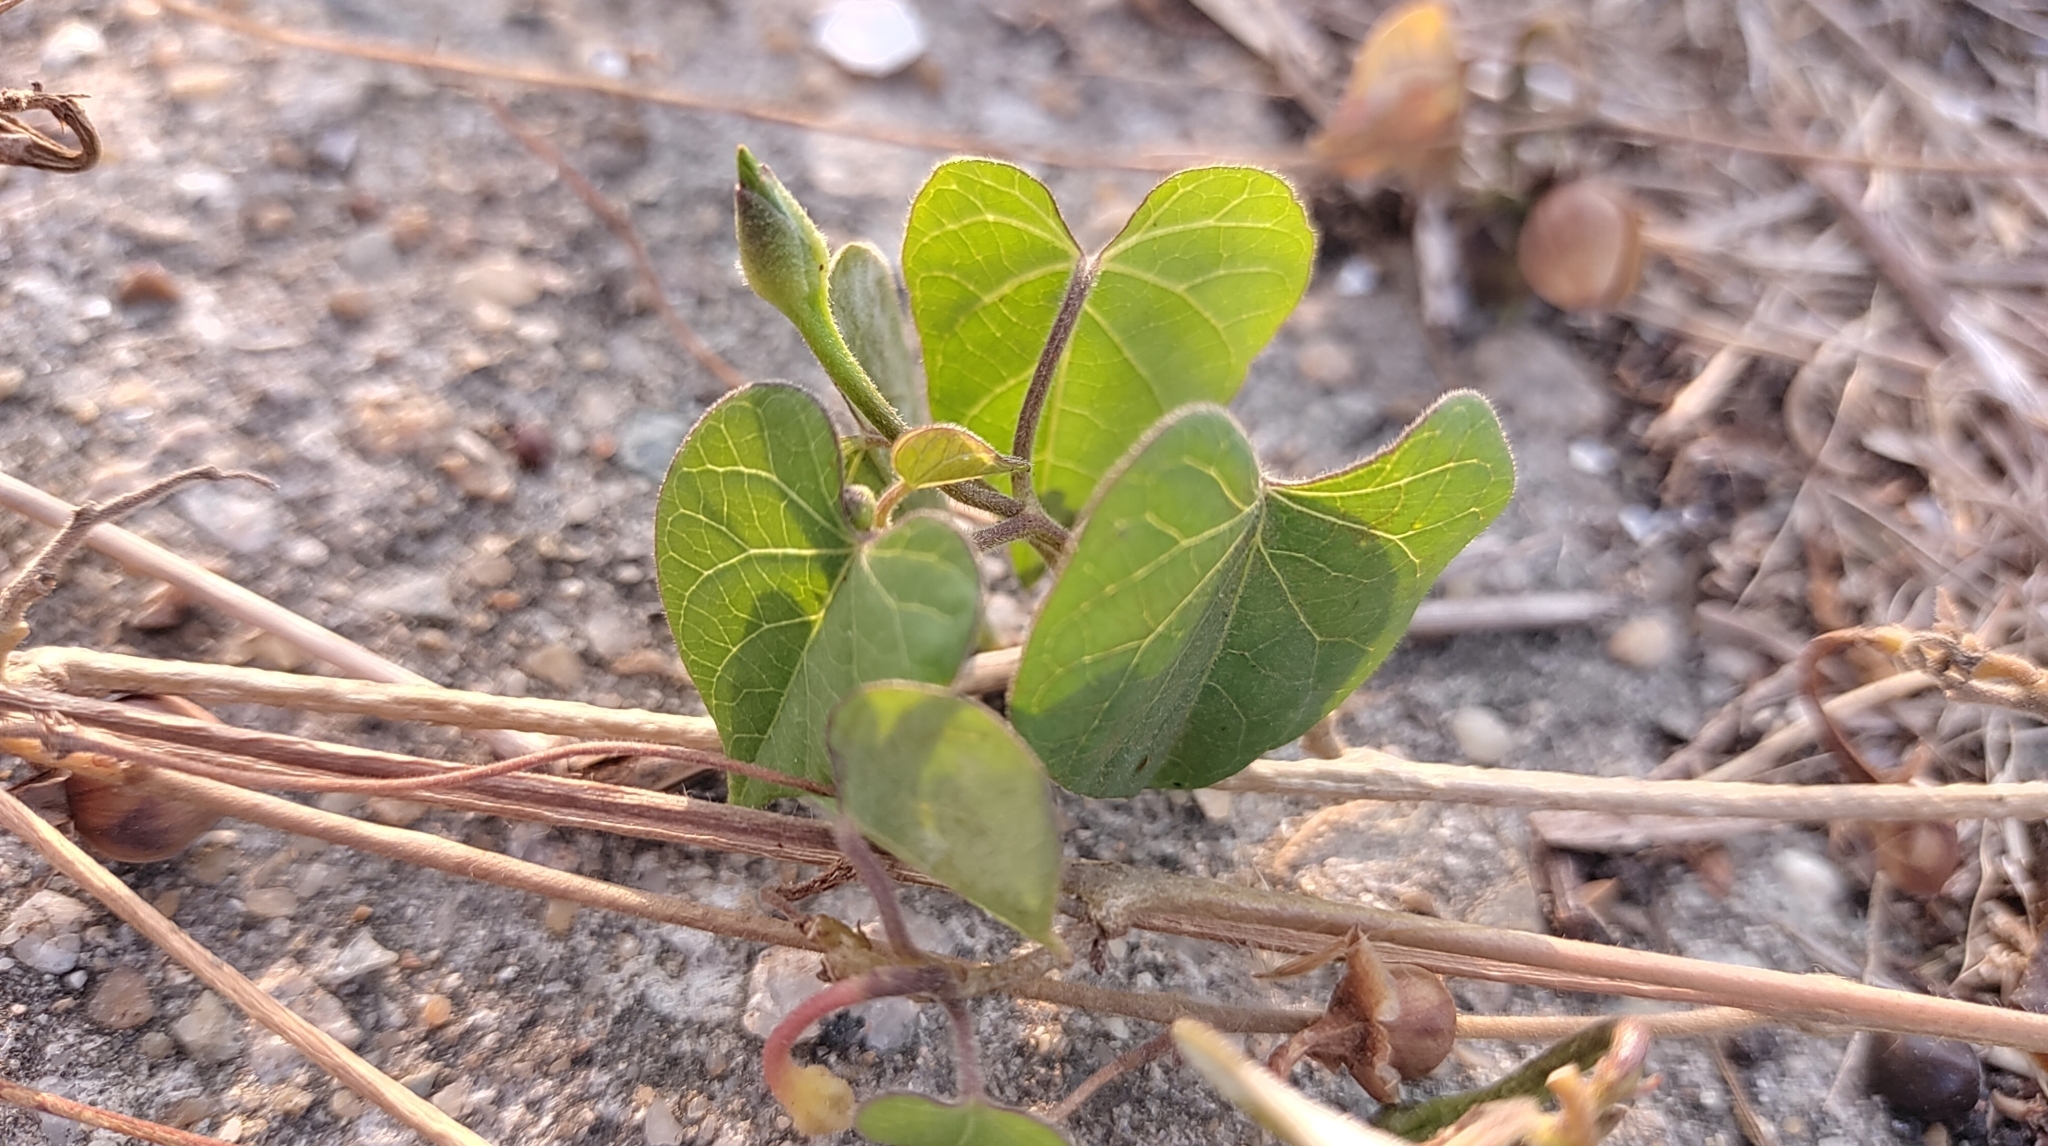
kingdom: Plantae
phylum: Tracheophyta
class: Magnoliopsida
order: Solanales
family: Convolvulaceae
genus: Ipomoea
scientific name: Ipomoea obscura
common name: Obscure morning-glory
